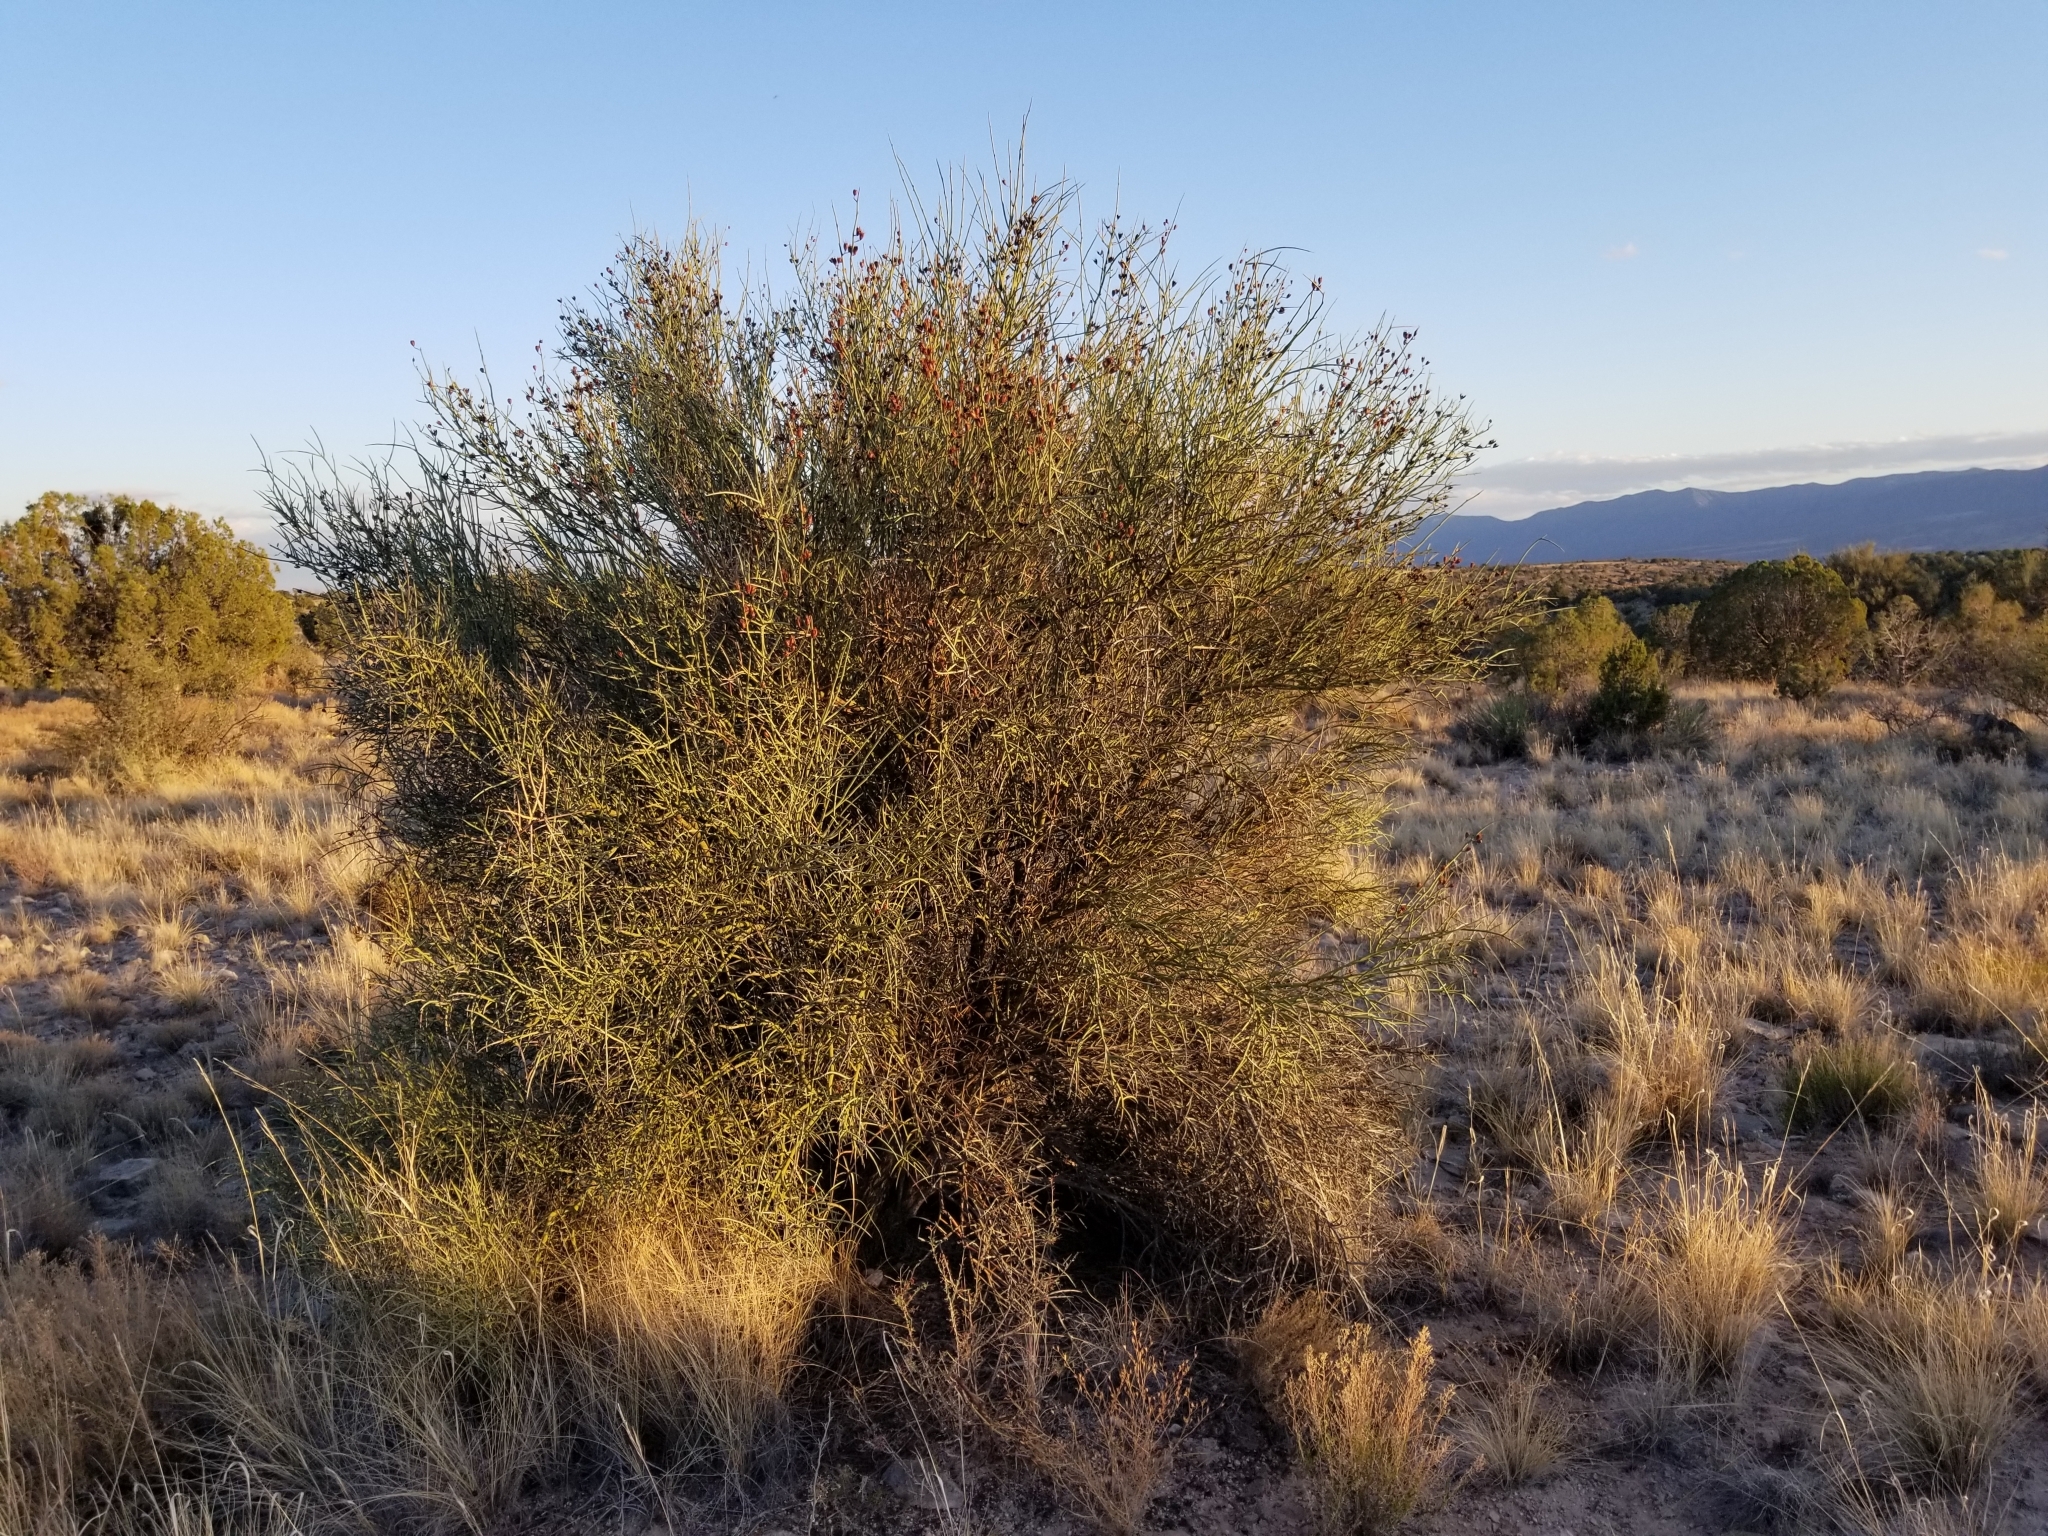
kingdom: Plantae
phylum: Tracheophyta
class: Magnoliopsida
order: Celastrales
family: Celastraceae
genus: Canotia
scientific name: Canotia holacantha
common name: Crucifixion thorns
